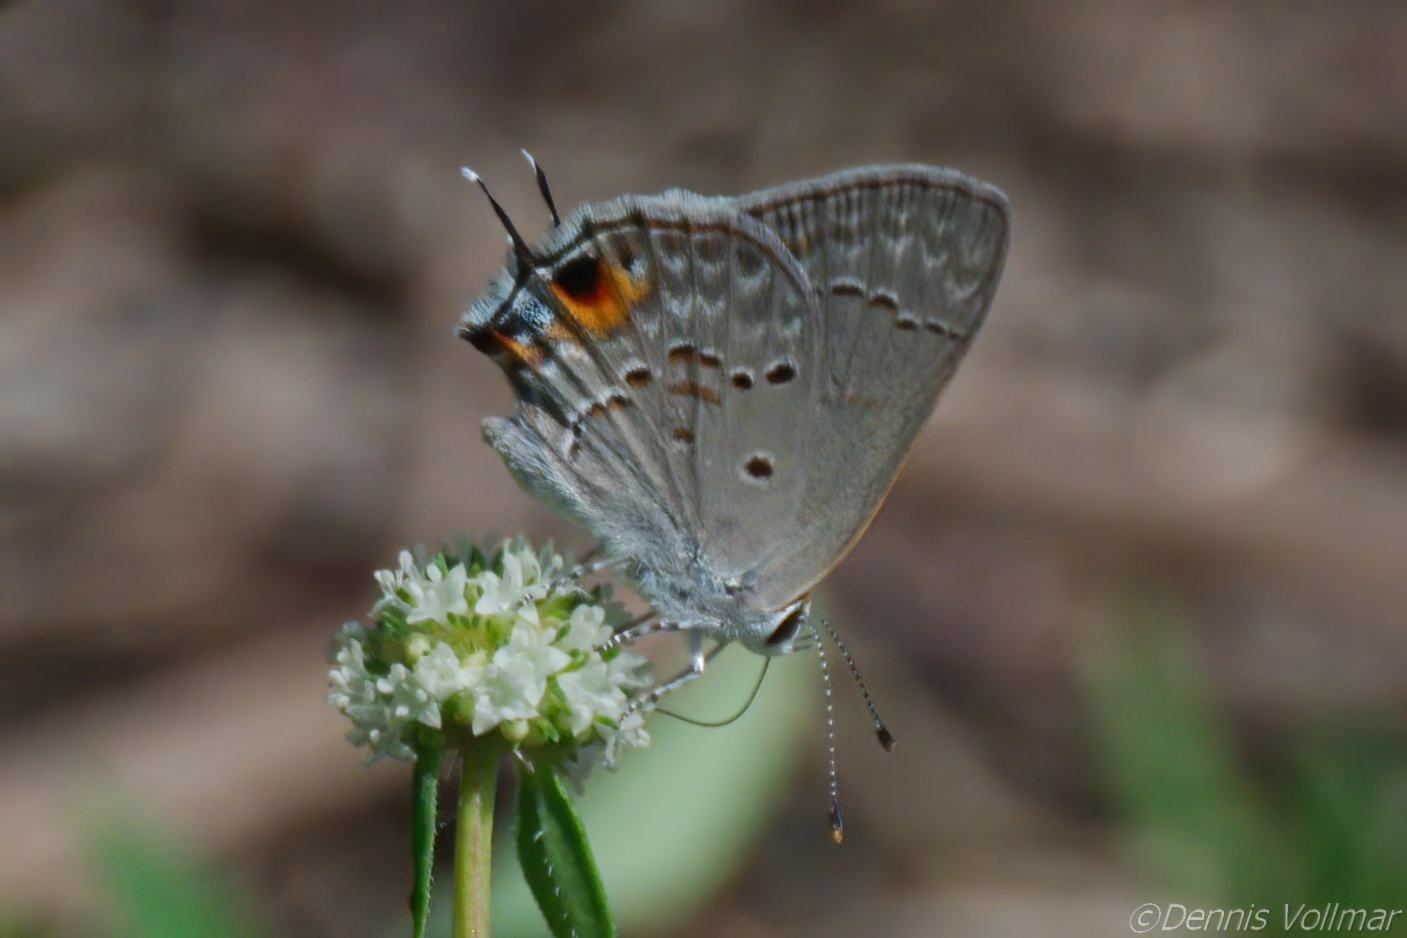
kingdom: Animalia
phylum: Arthropoda
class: Insecta
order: Lepidoptera
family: Lycaenidae
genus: Callicista
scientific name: Callicista columella
